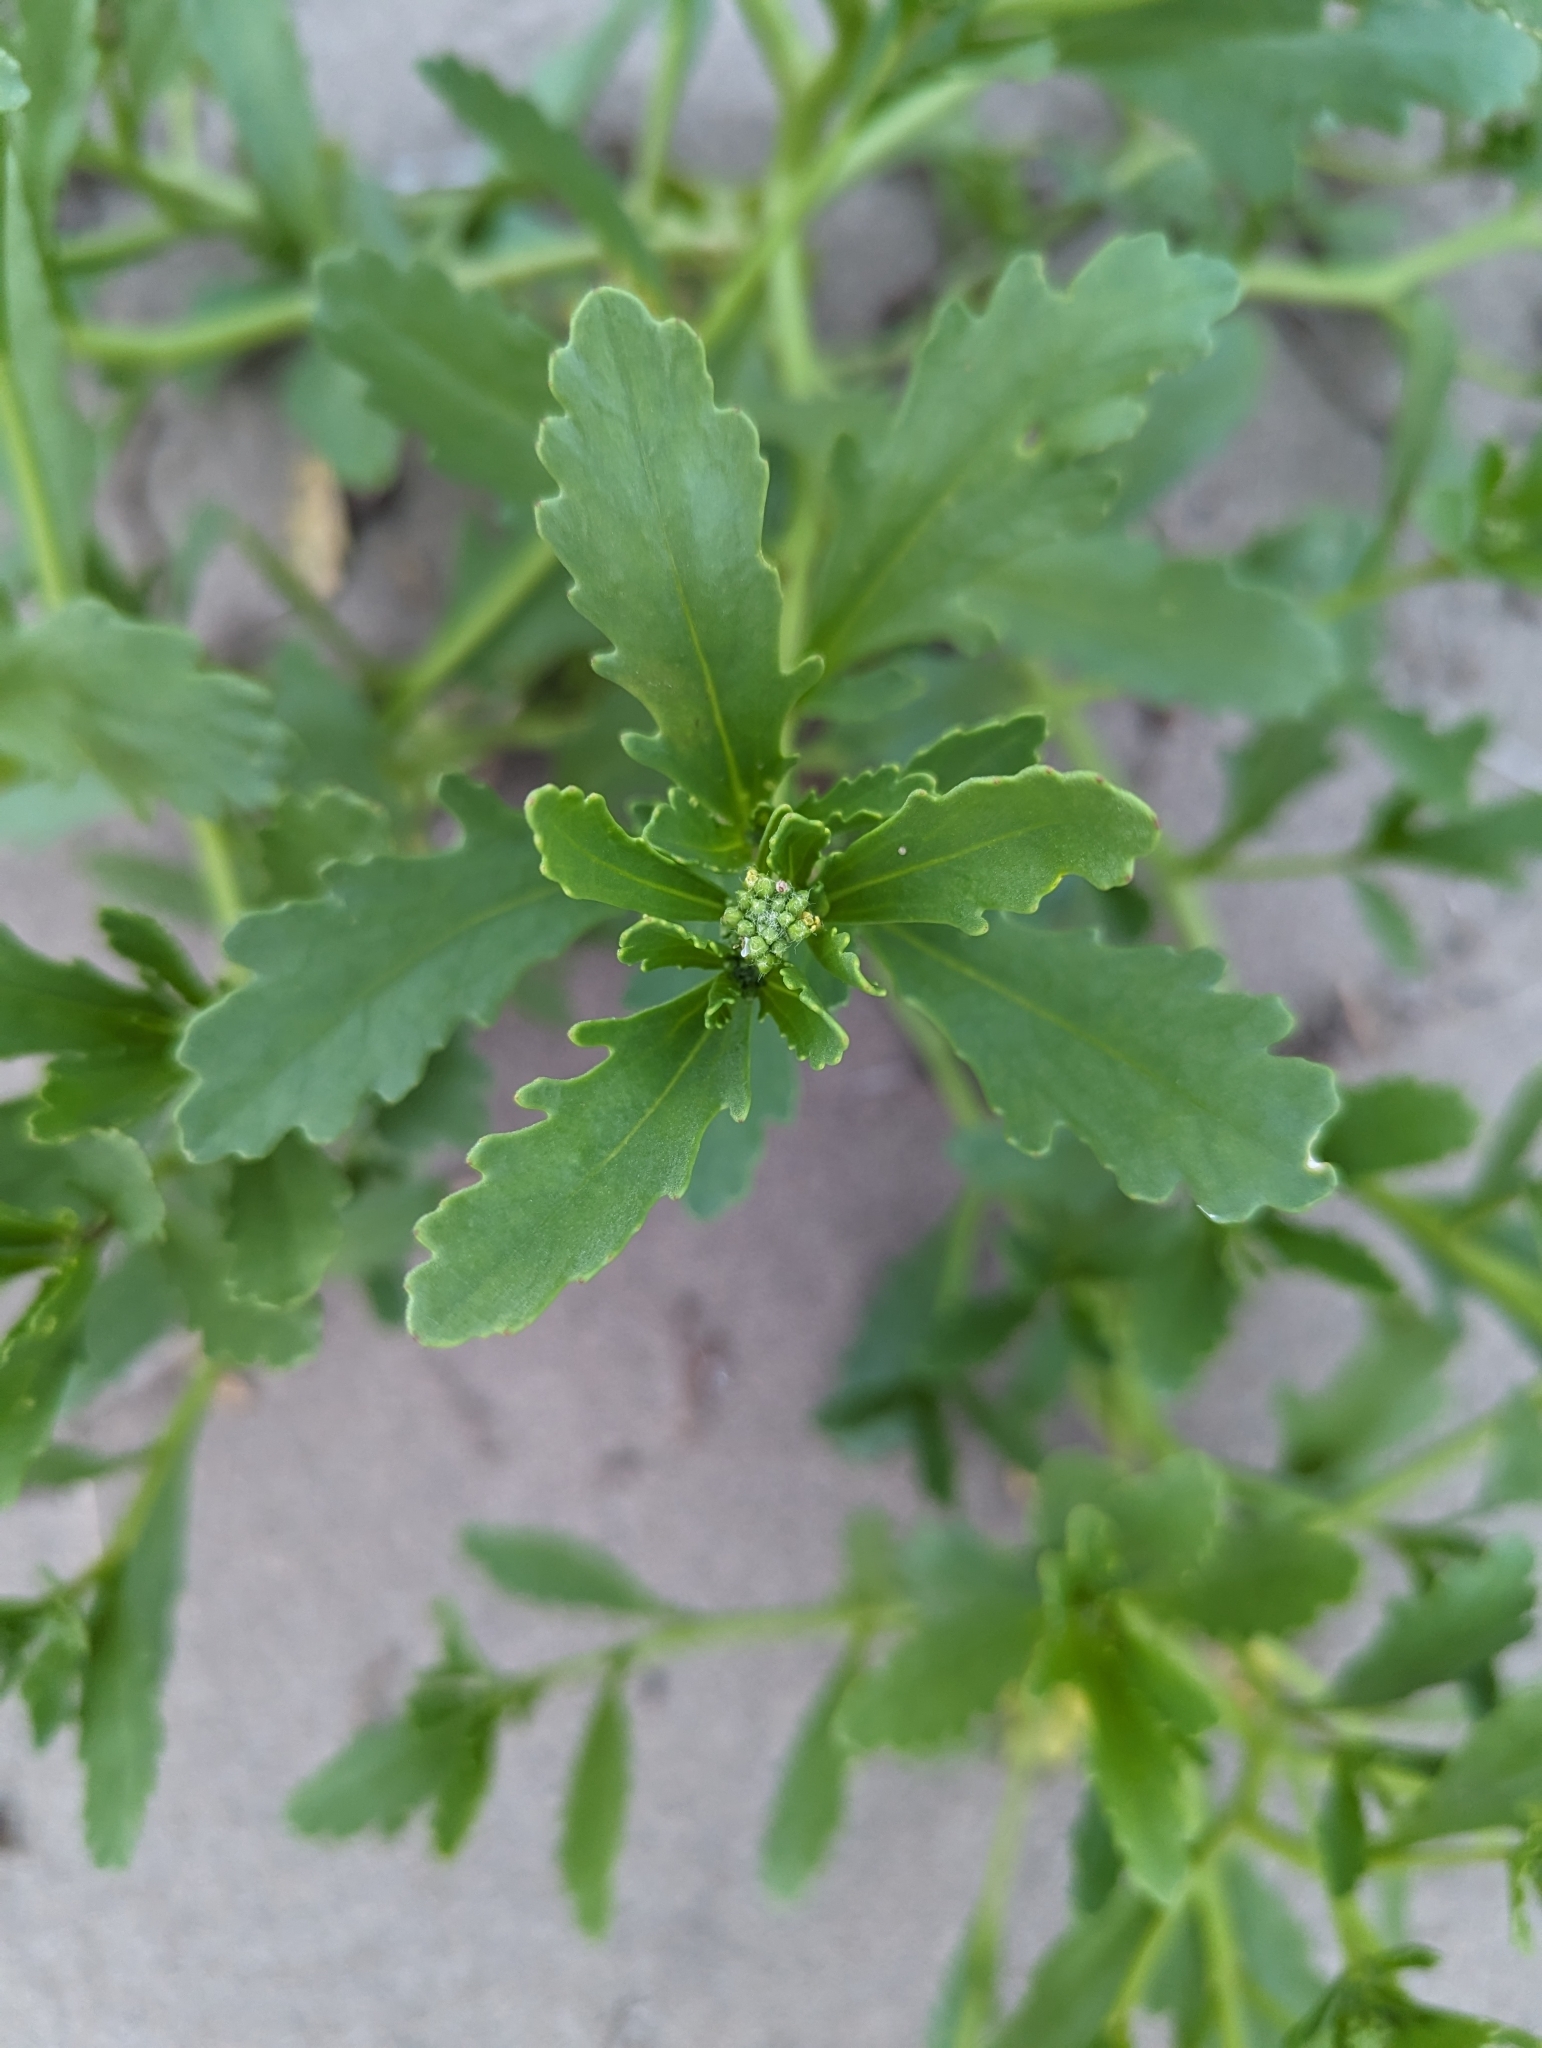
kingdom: Plantae
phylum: Tracheophyta
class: Magnoliopsida
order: Brassicales
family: Brassicaceae
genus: Cakile
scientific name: Cakile edentula
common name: American sea rocket
